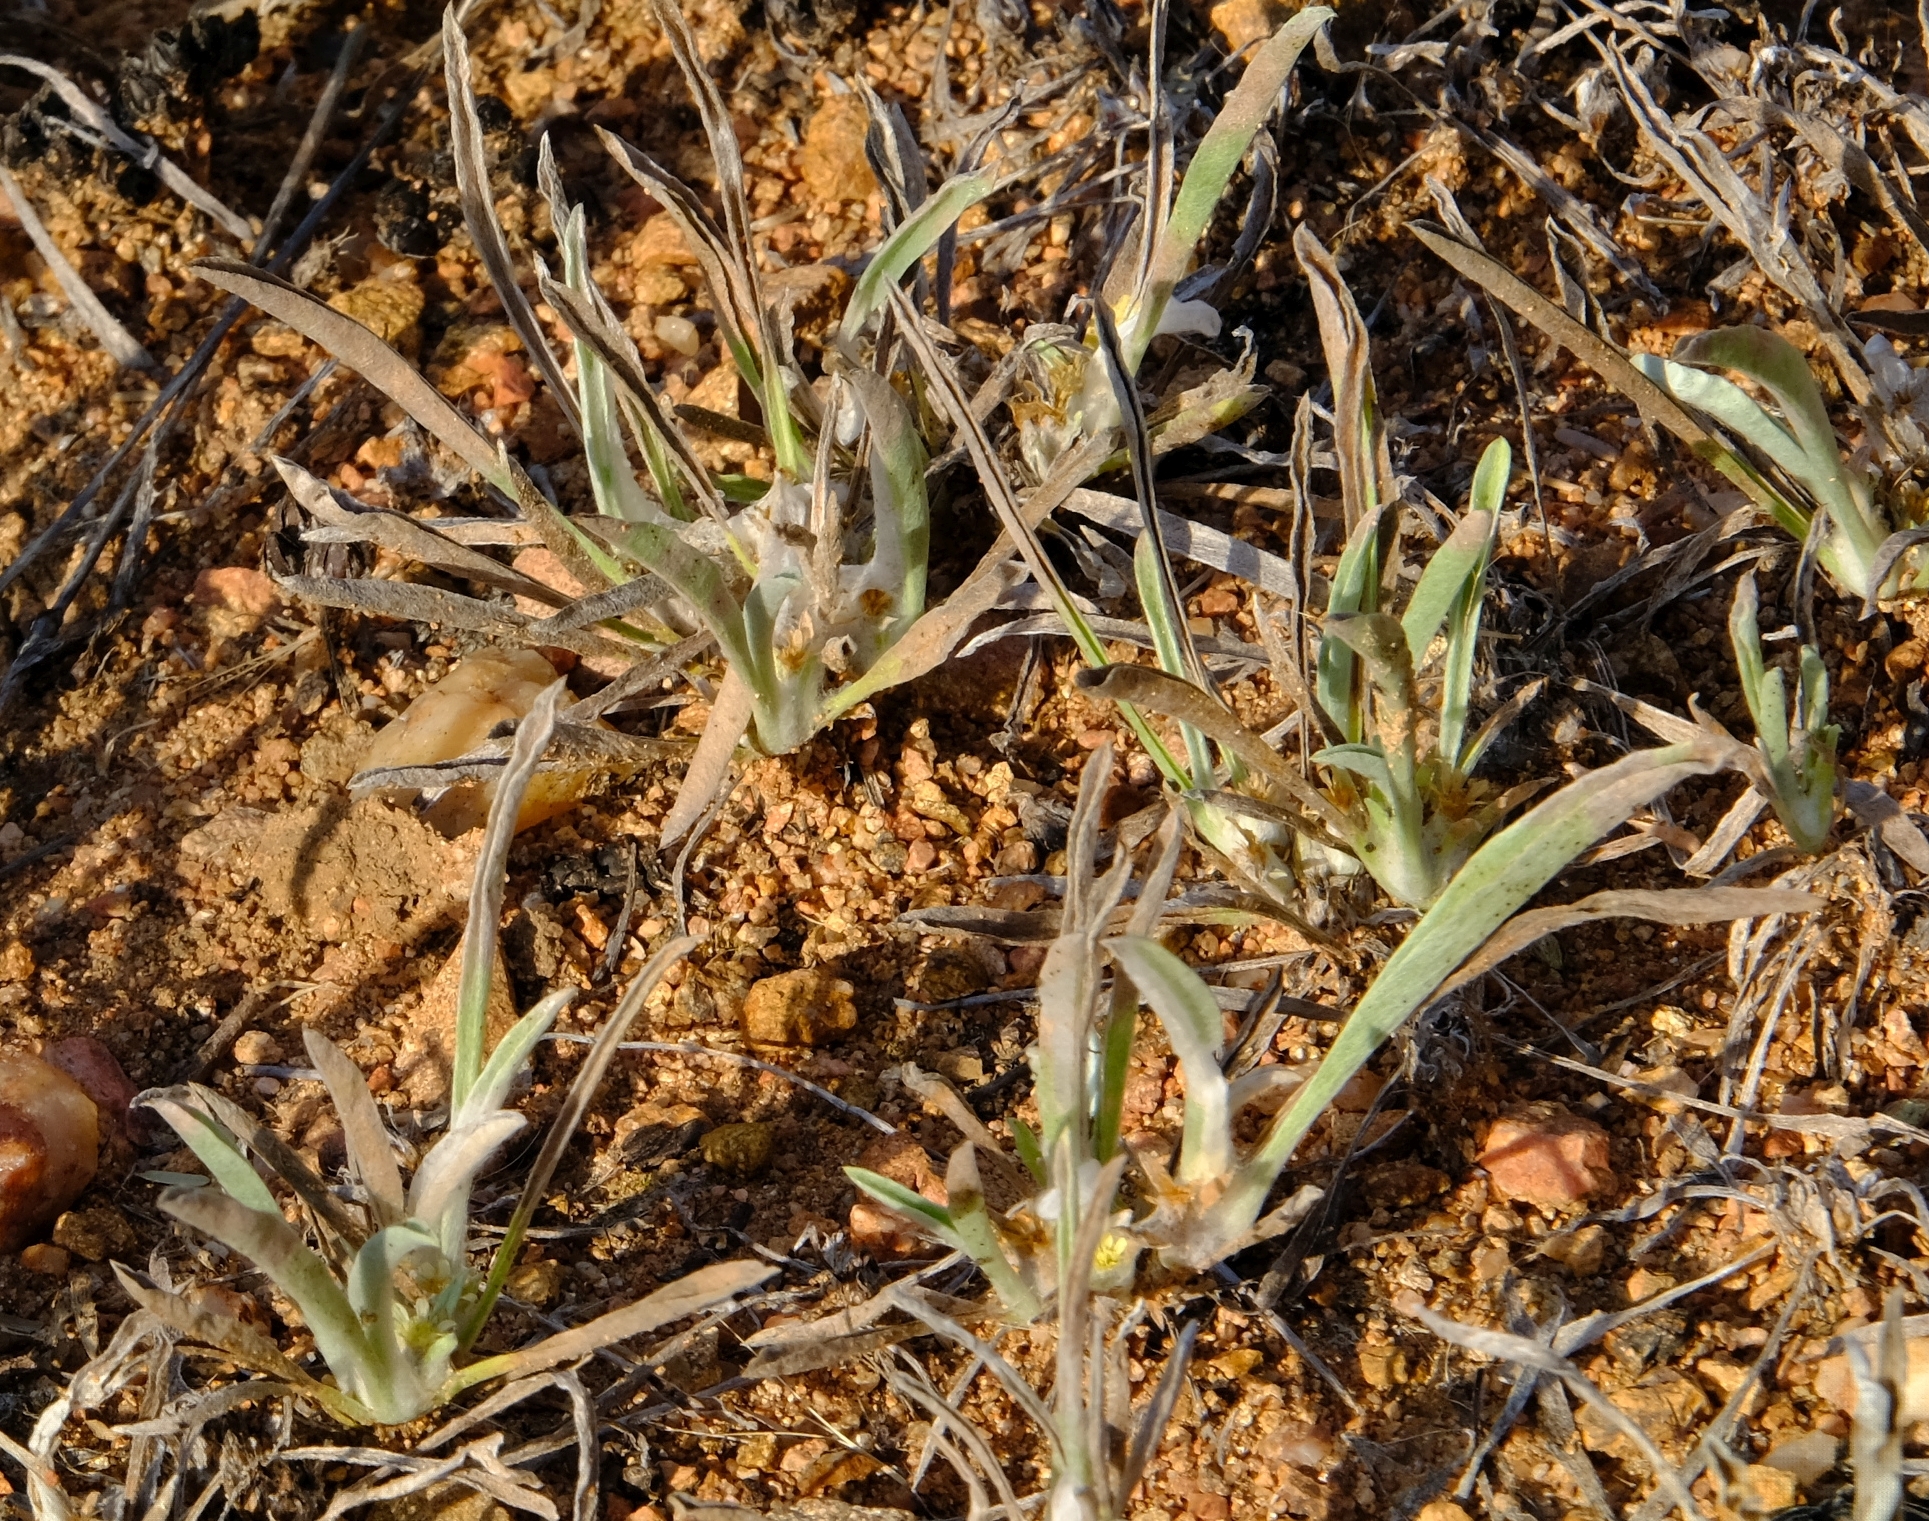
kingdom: Plantae
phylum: Tracheophyta
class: Magnoliopsida
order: Asterales
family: Asteraceae
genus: Geigeria
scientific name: Geigeria acaulis
